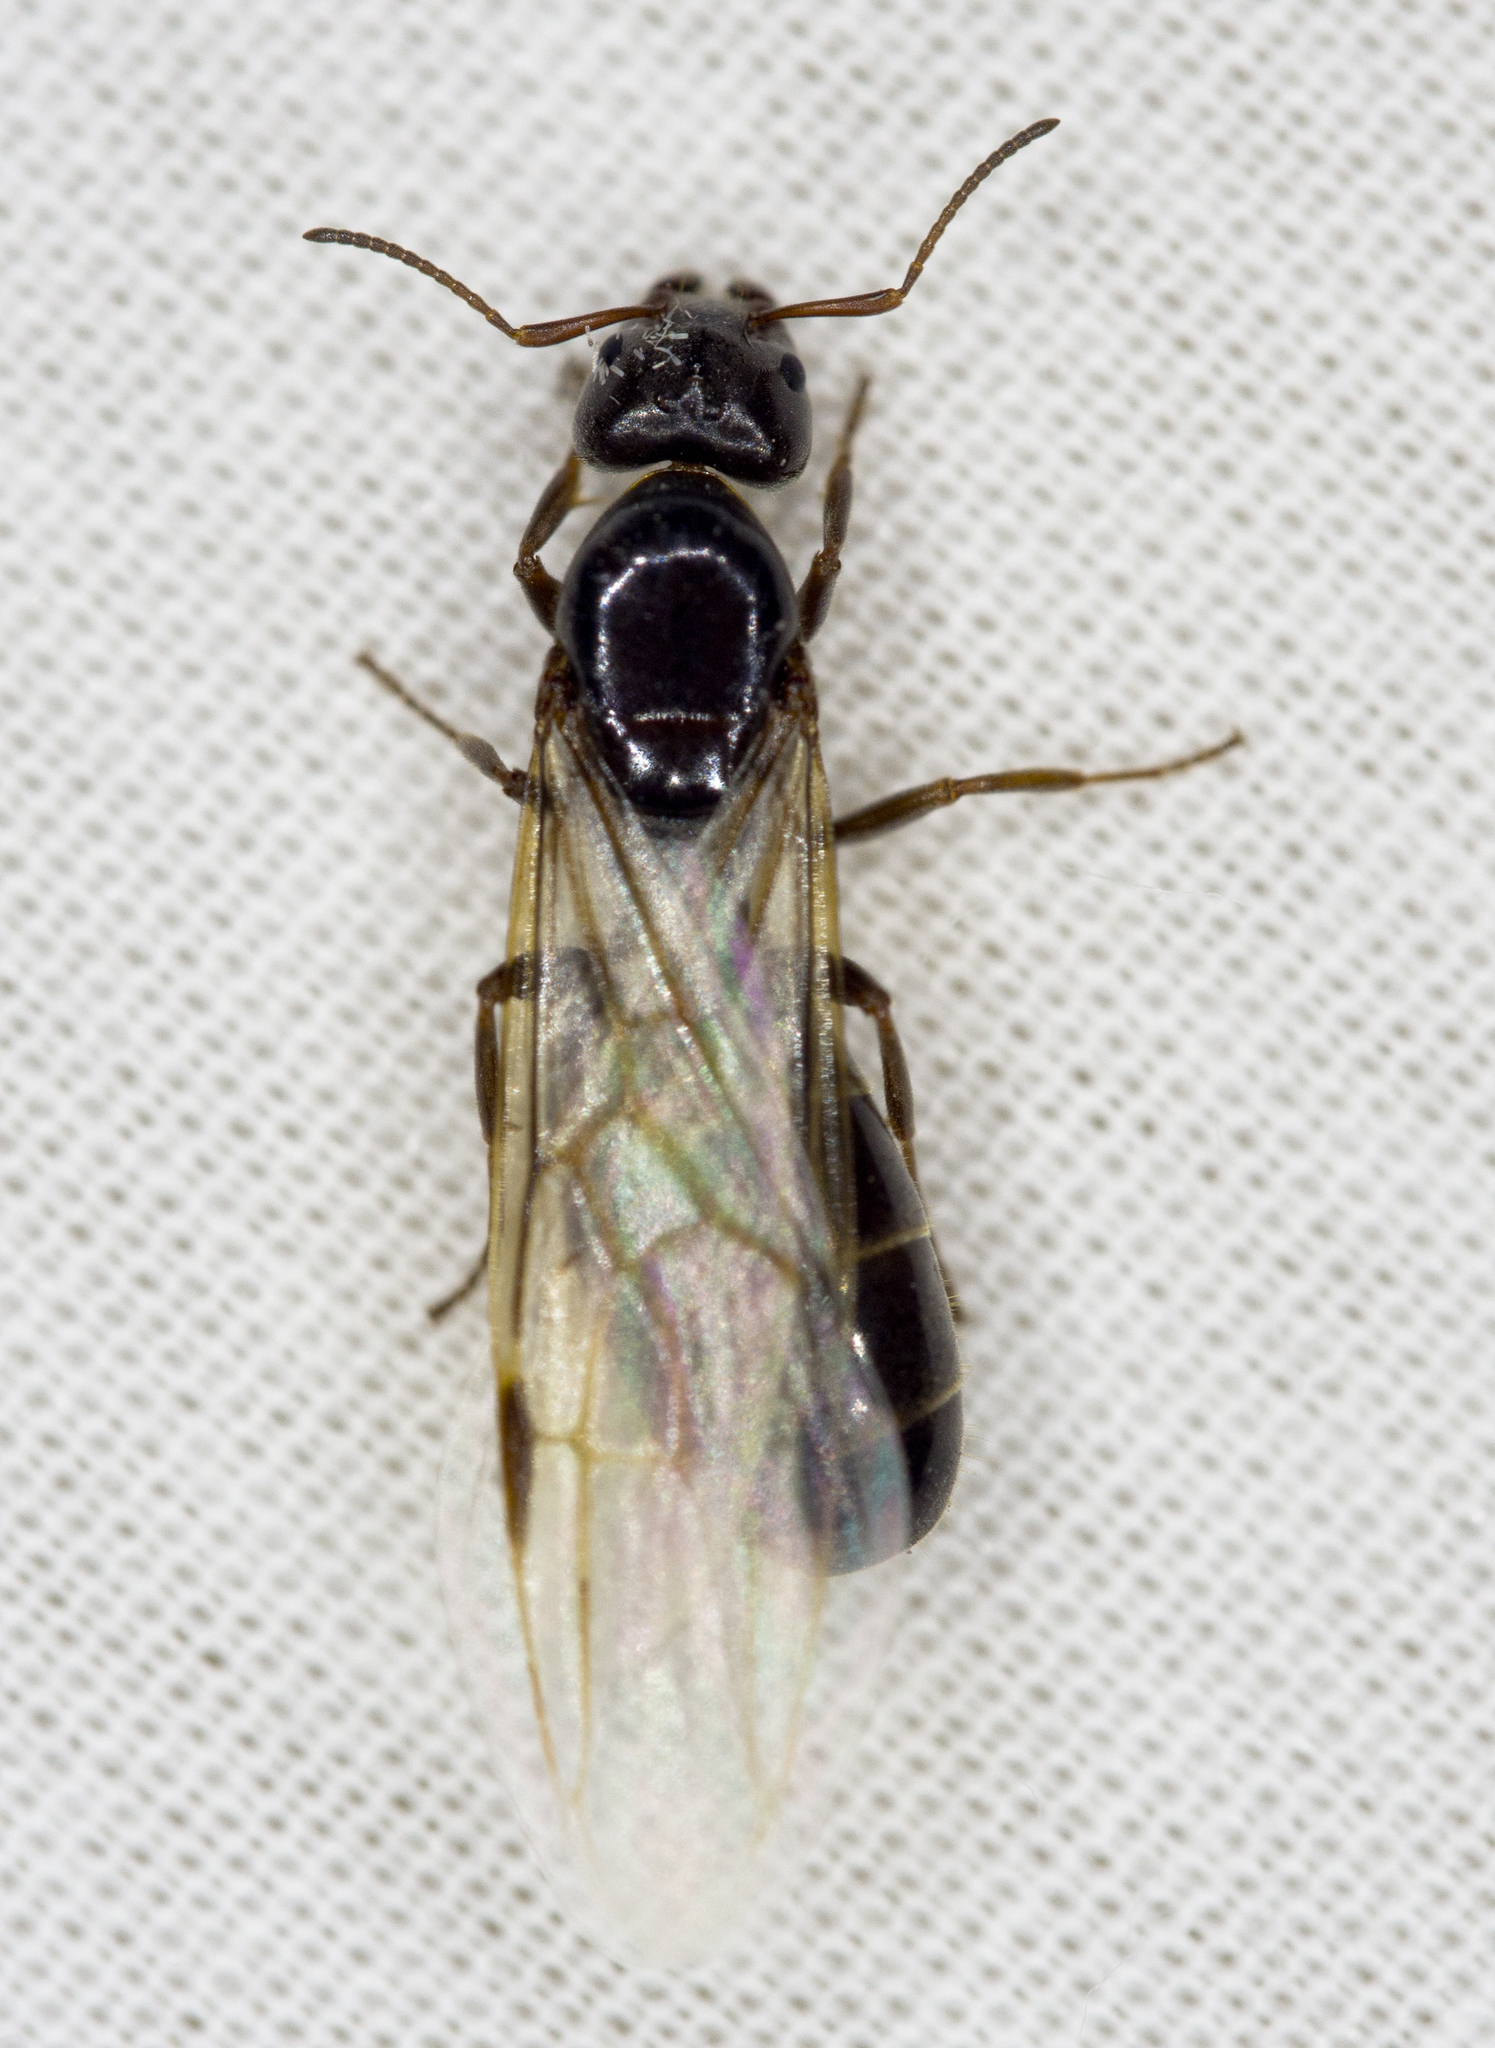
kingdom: Animalia
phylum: Arthropoda
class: Insecta
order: Hymenoptera
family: Formicidae
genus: Liometopum
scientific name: Liometopum luctuosum
